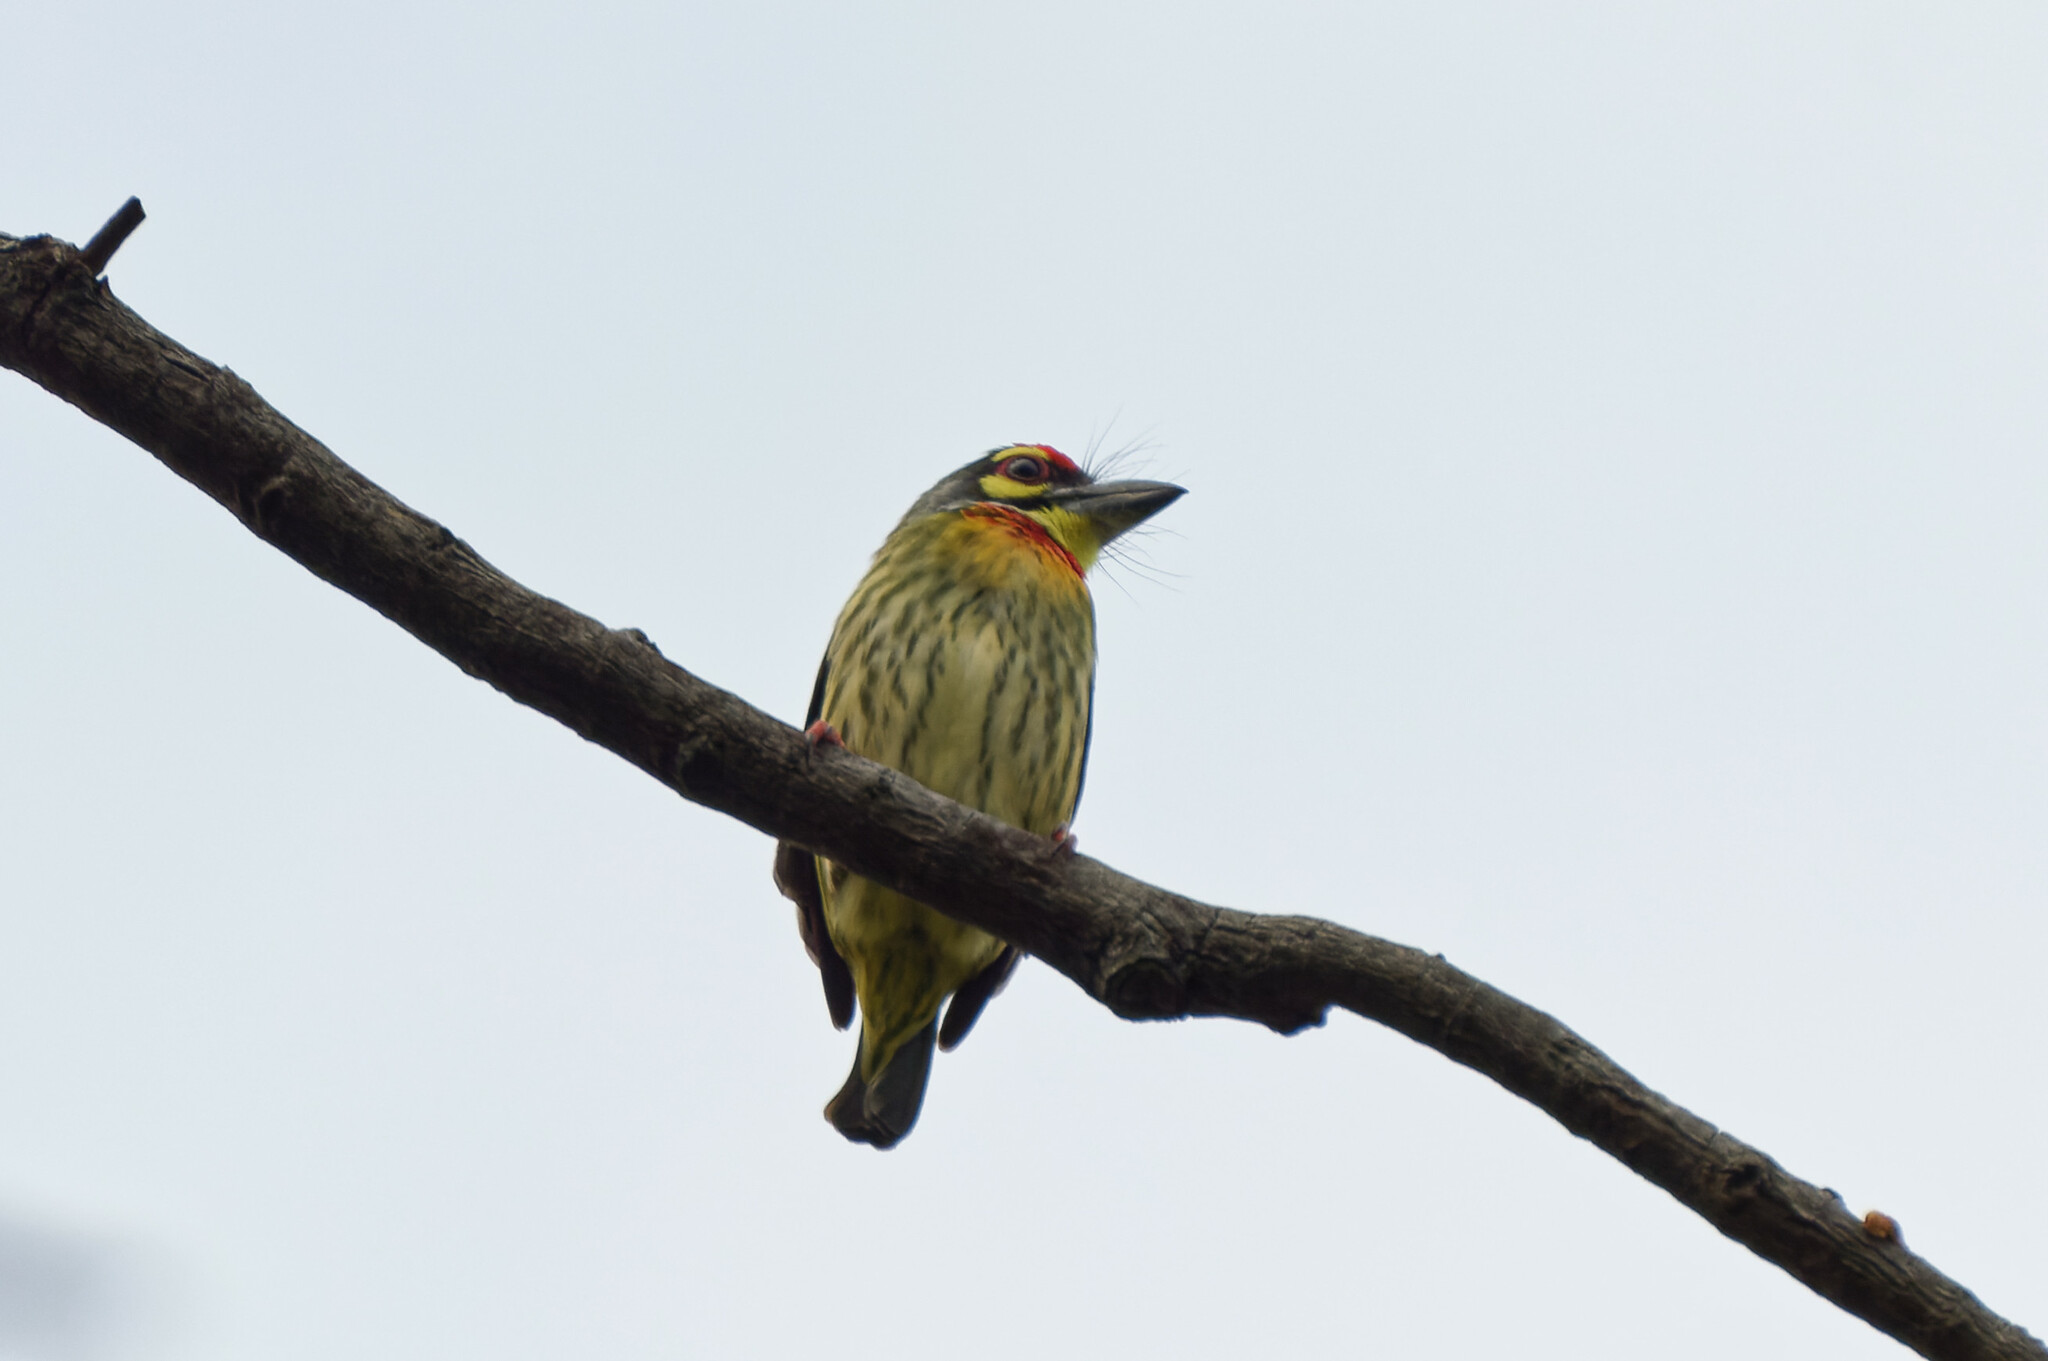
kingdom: Animalia
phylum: Chordata
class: Aves
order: Piciformes
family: Megalaimidae
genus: Psilopogon
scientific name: Psilopogon haemacephalus
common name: Coppersmith barbet
